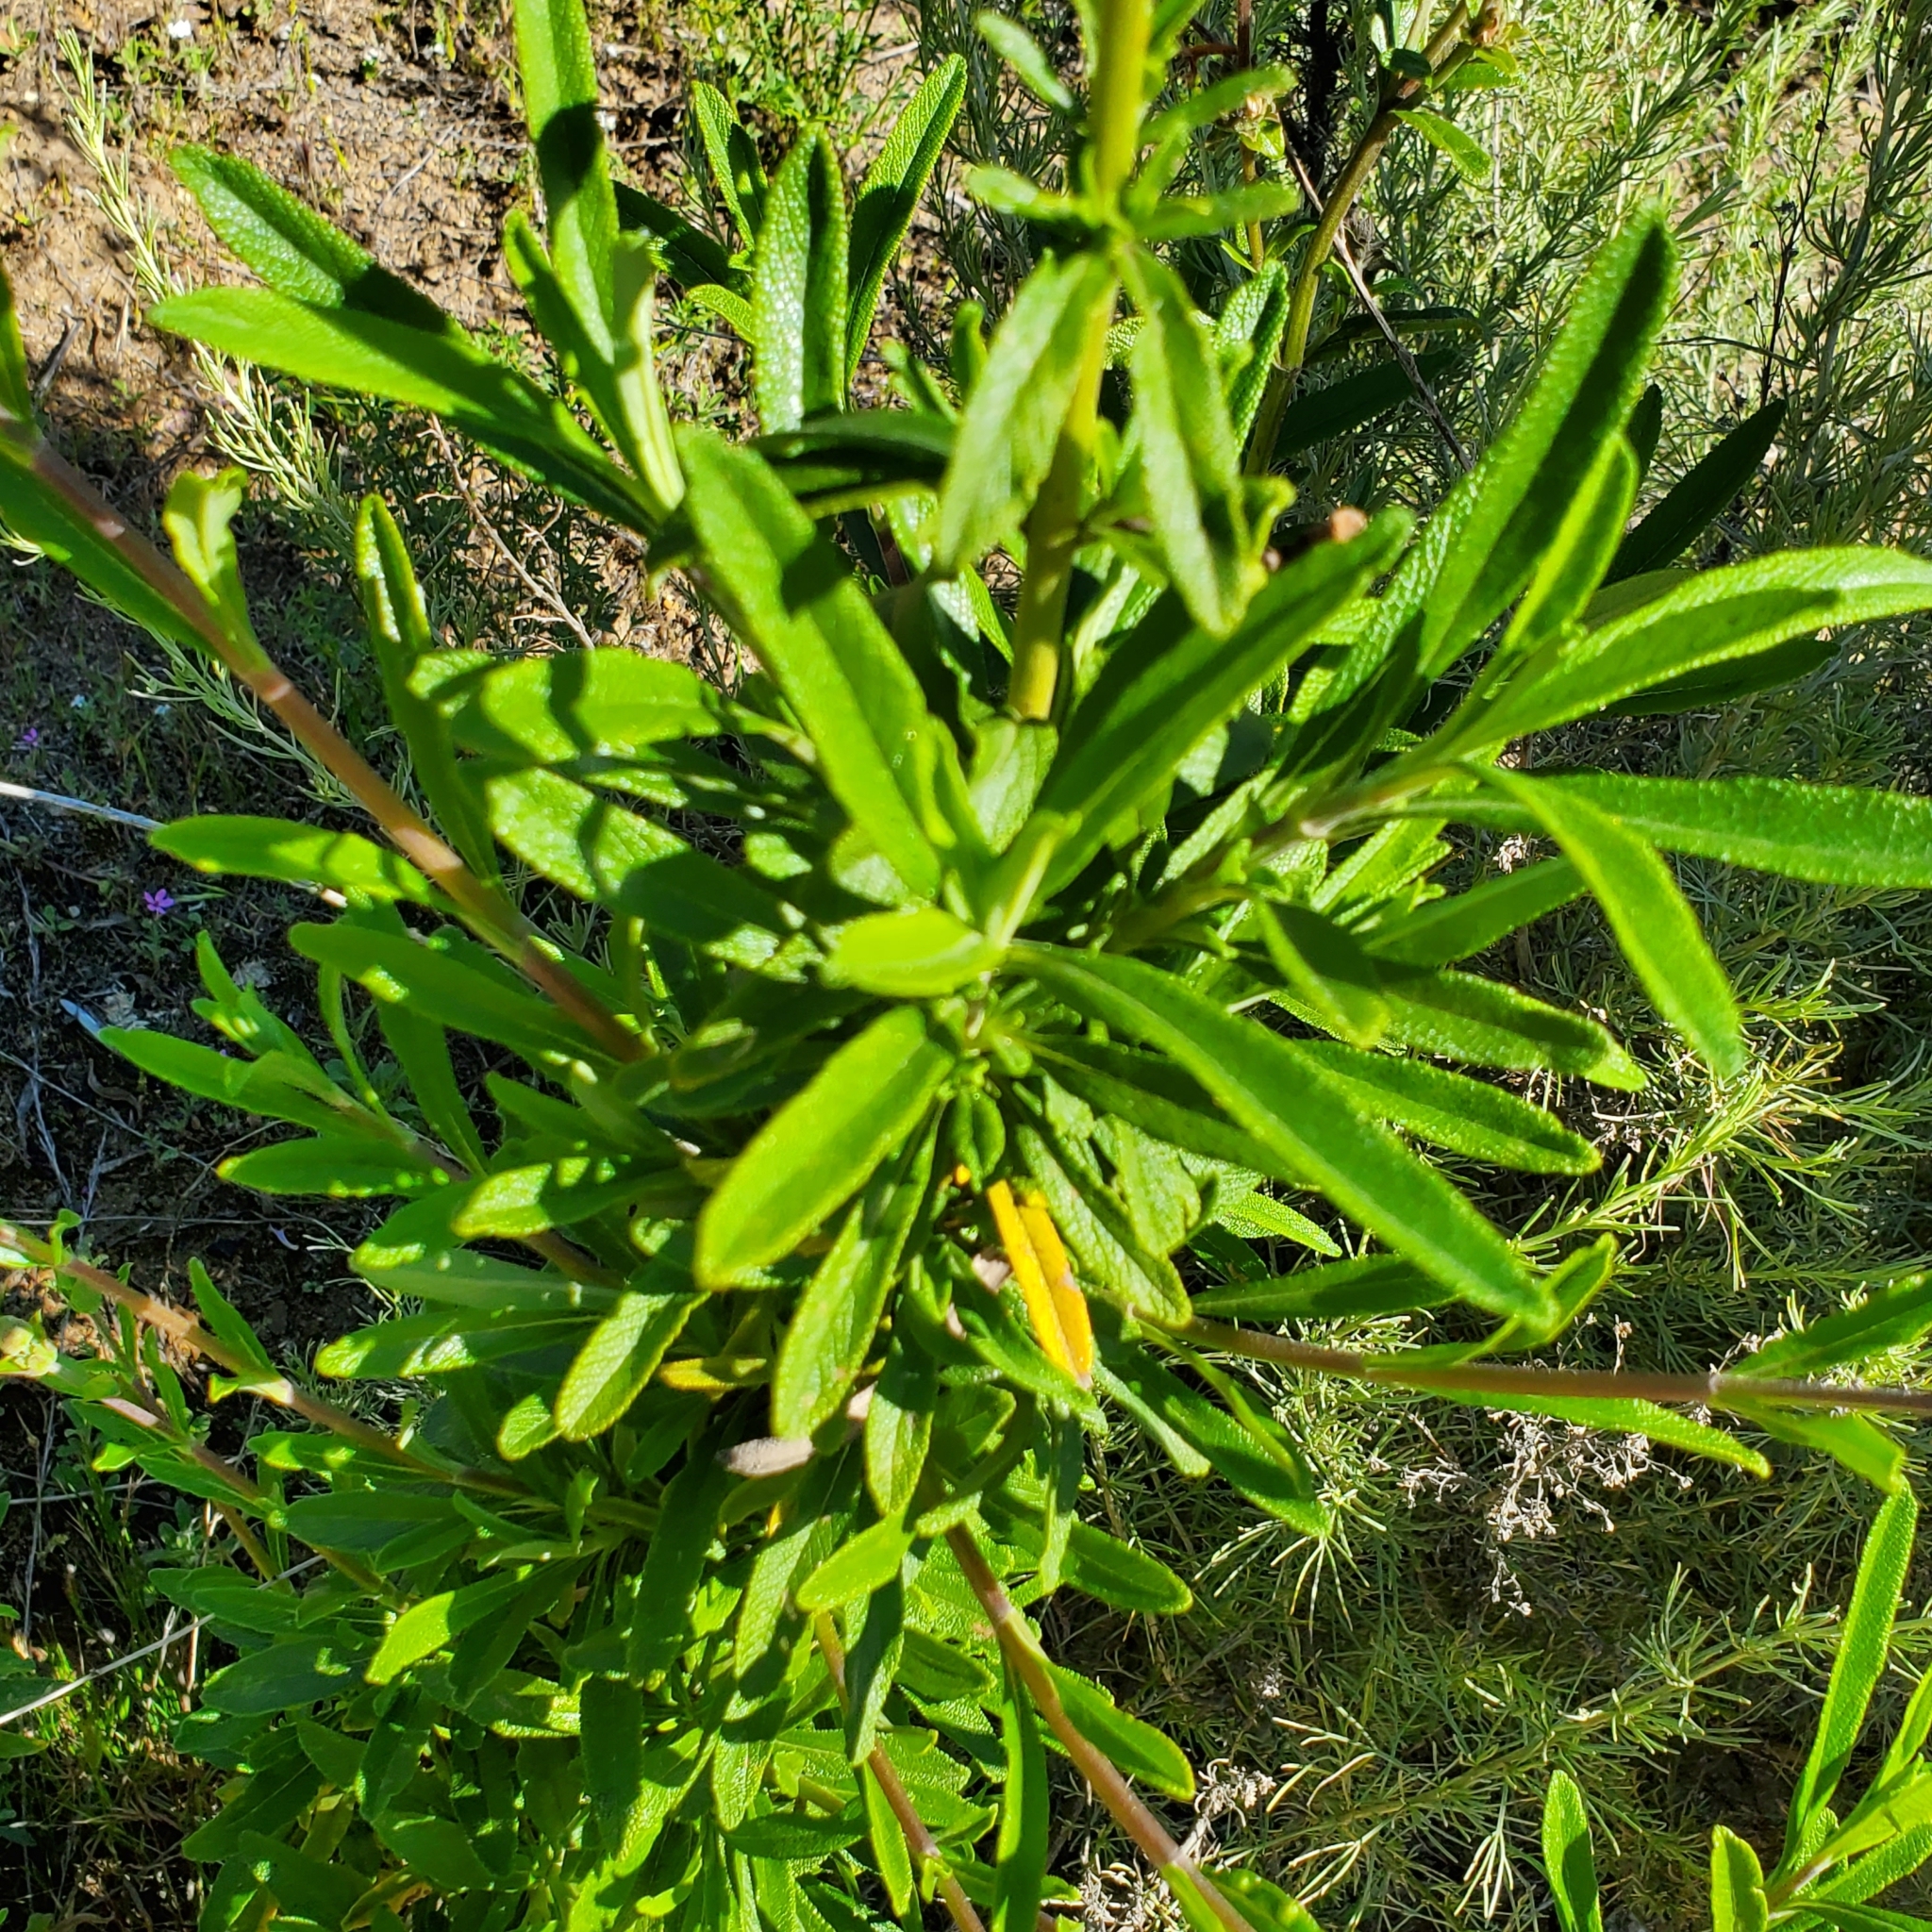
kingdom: Plantae
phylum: Tracheophyta
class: Magnoliopsida
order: Lamiales
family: Lamiaceae
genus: Salvia
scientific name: Salvia mellifera
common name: Black sage
